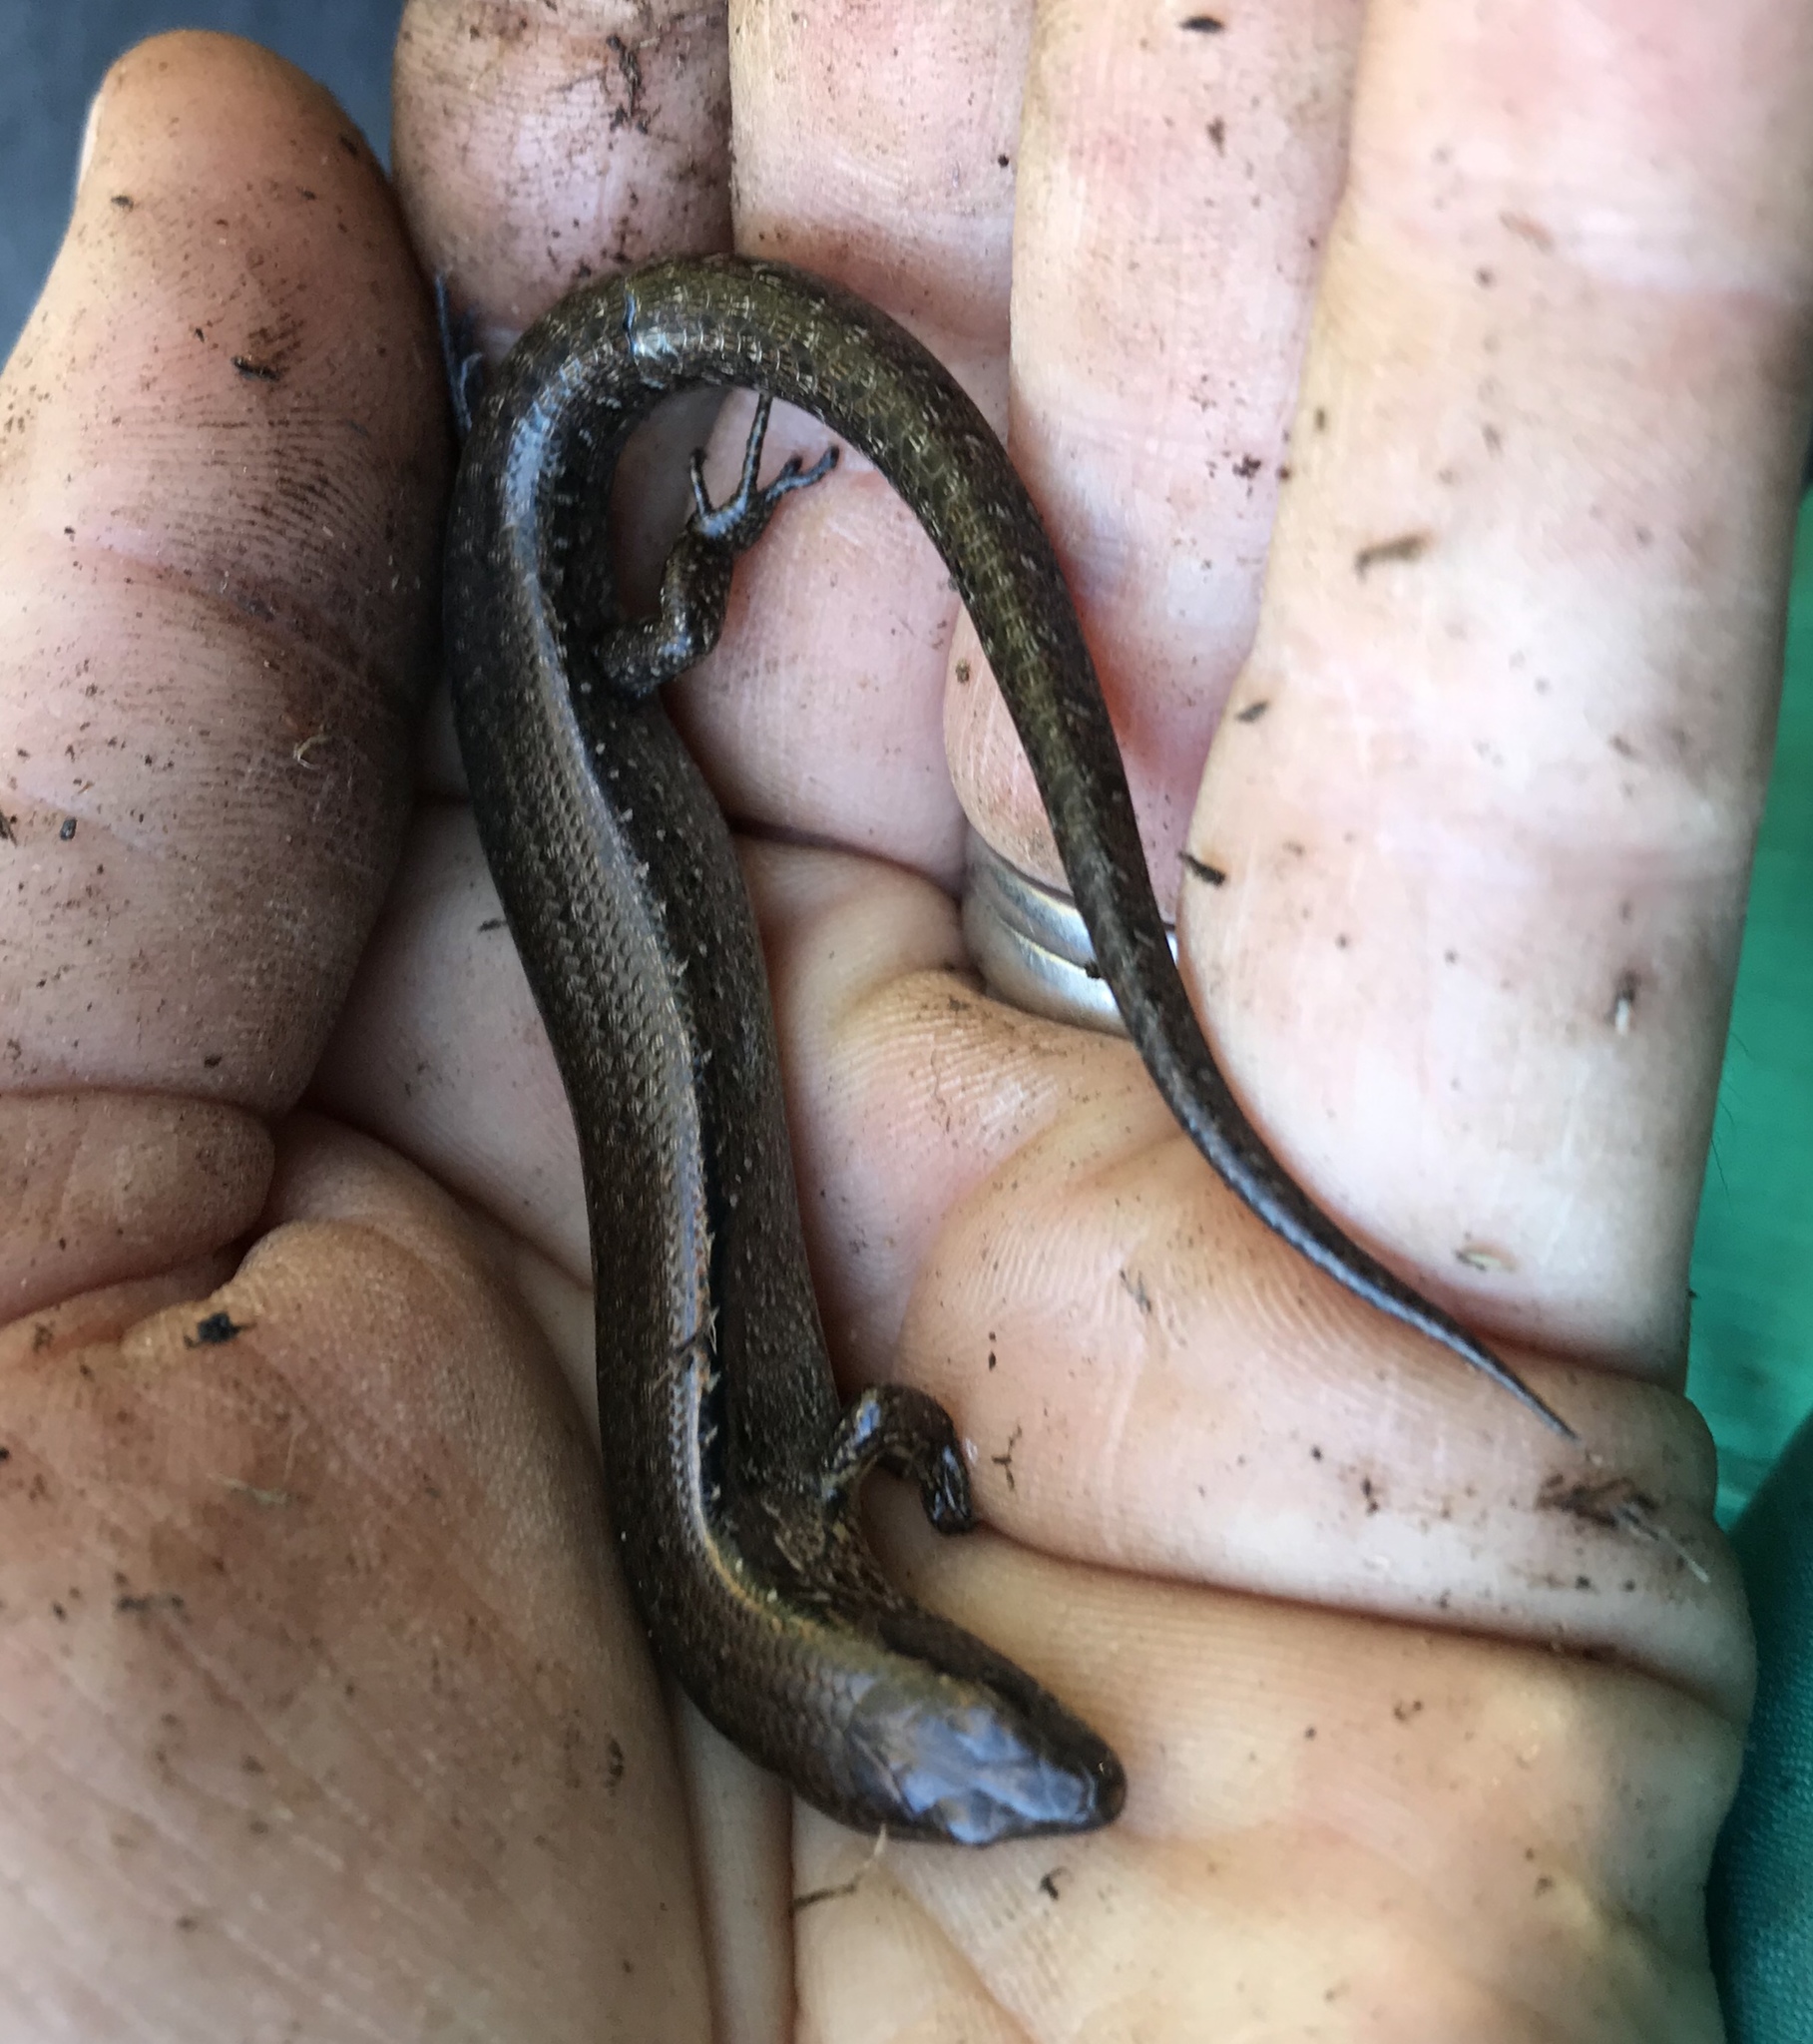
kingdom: Animalia
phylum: Chordata
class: Squamata
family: Scincidae
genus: Oligosoma
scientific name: Oligosoma aeneum
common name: Copper skink
